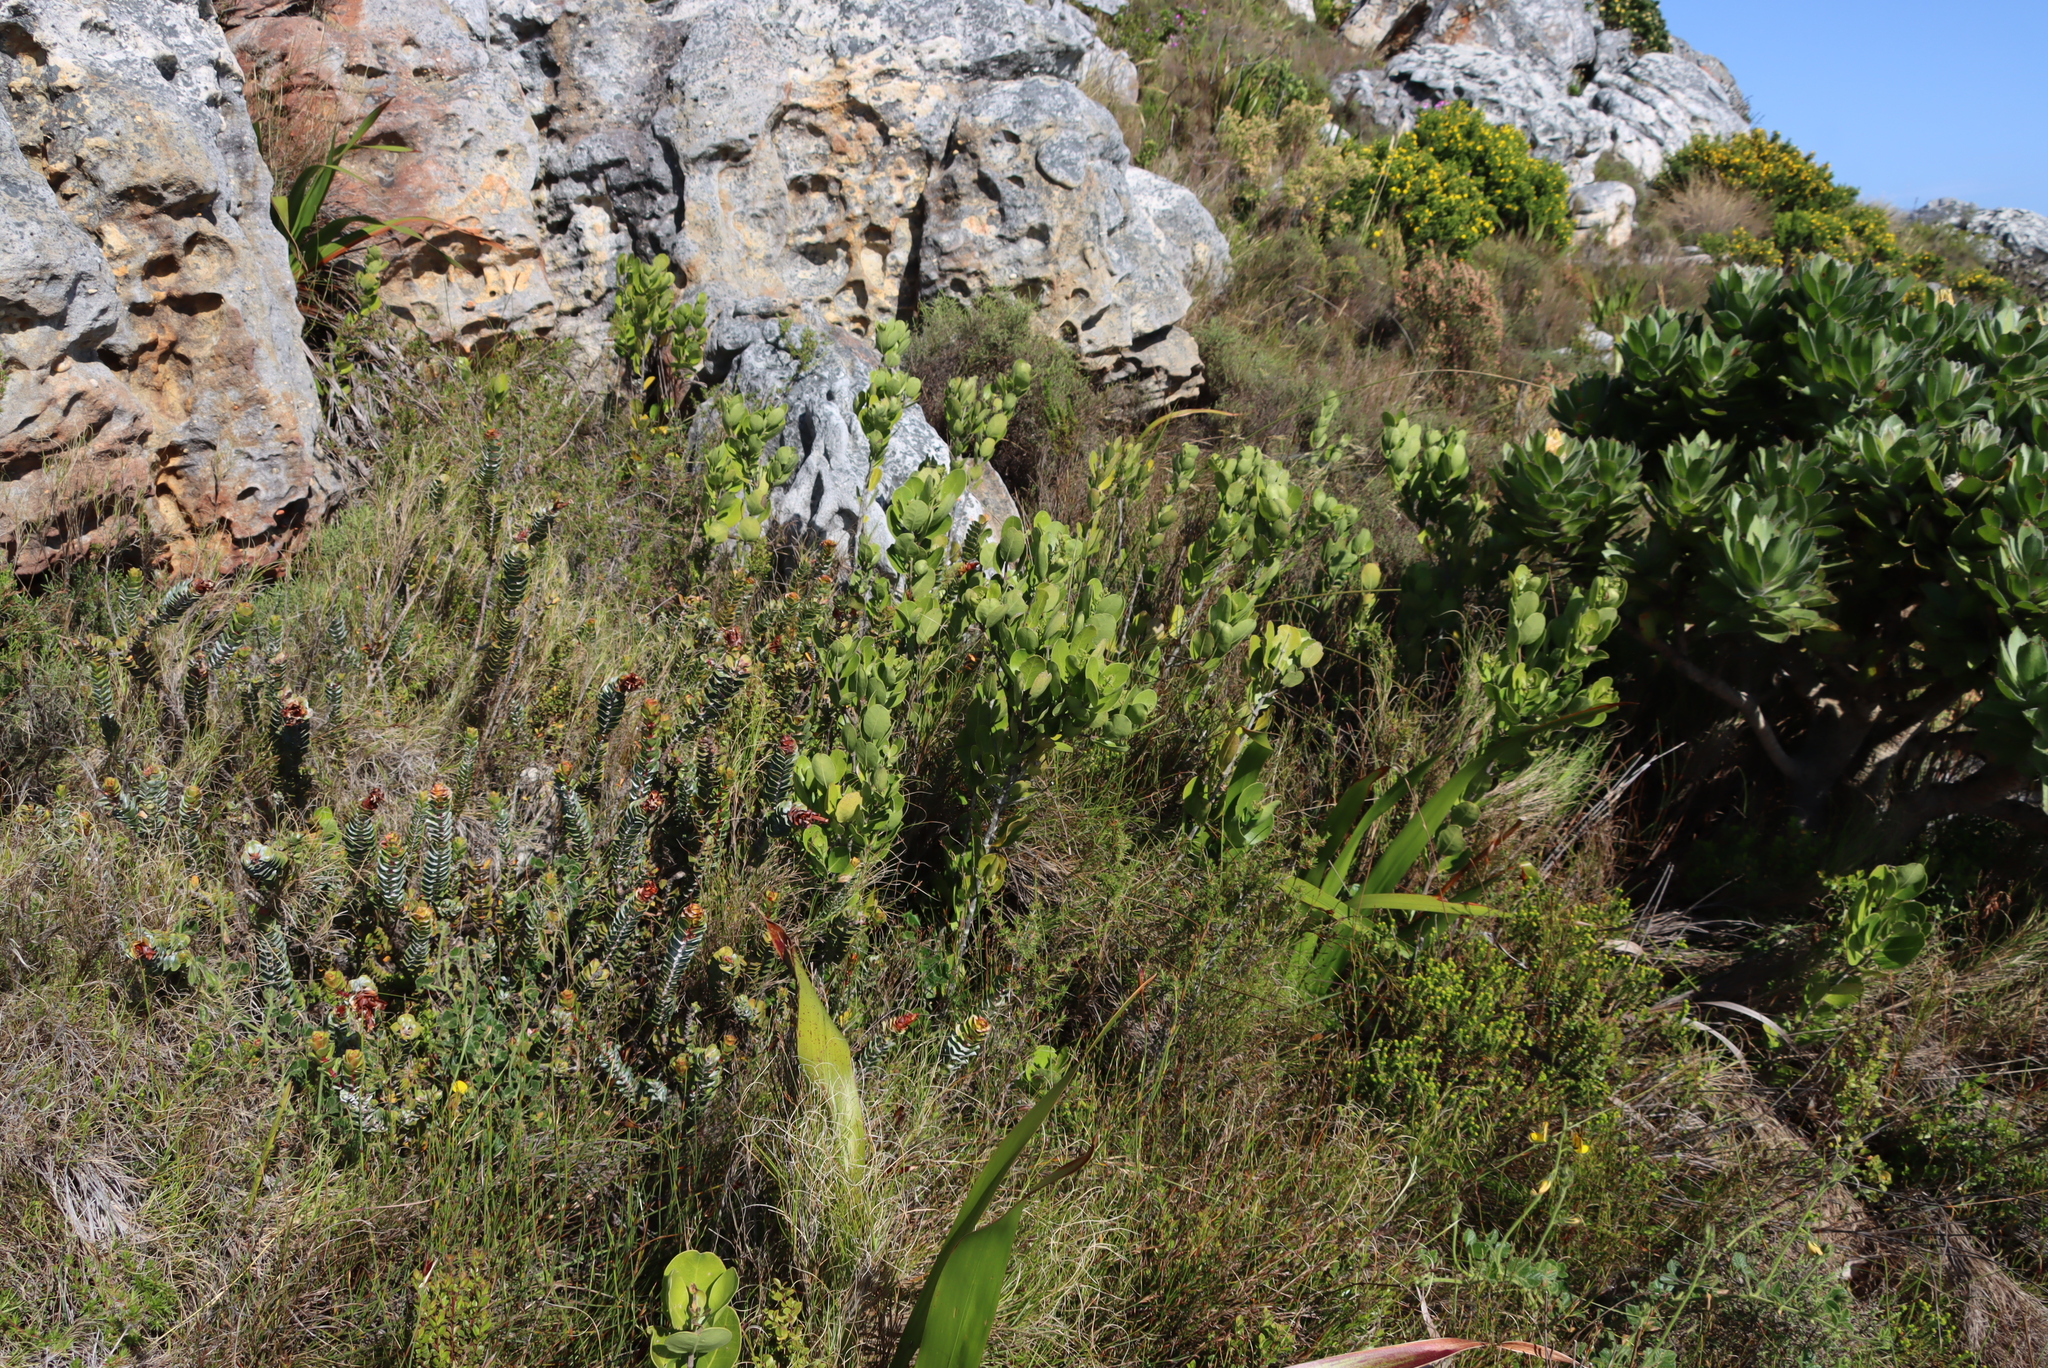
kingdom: Plantae
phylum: Tracheophyta
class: Magnoliopsida
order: Myrtales
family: Penaeaceae
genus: Saltera
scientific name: Saltera sarcocolla
